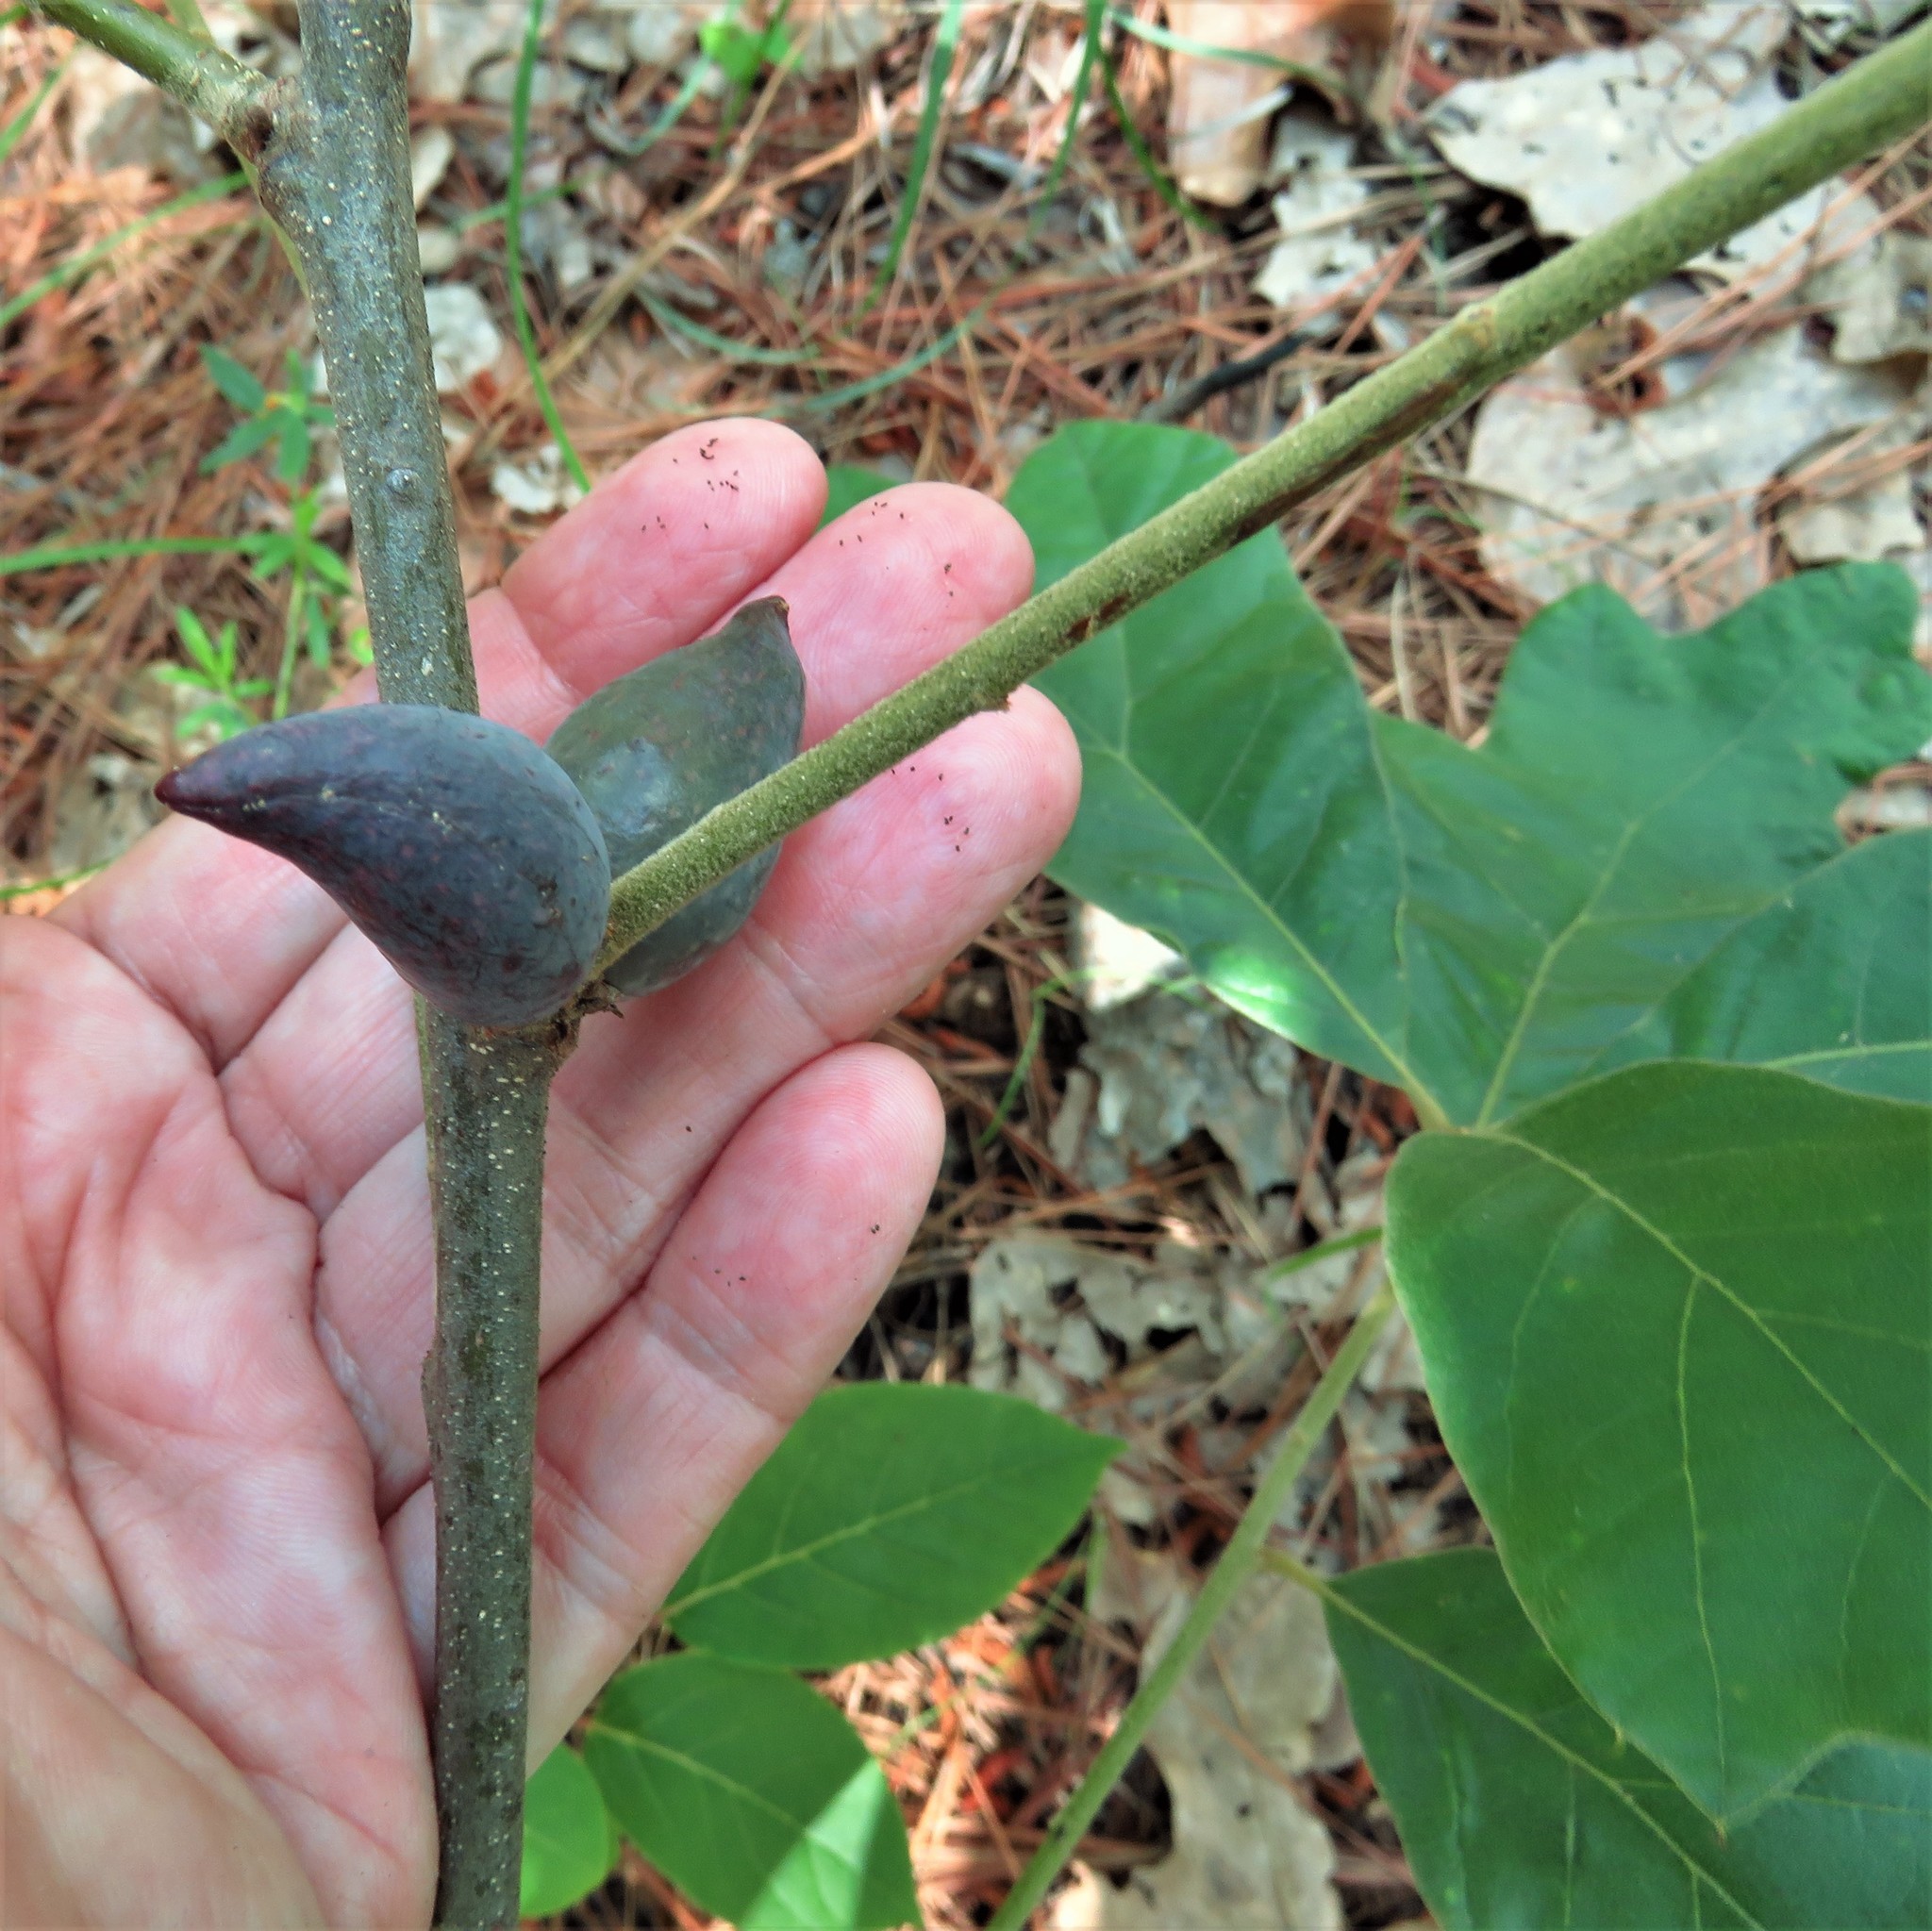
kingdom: Animalia
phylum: Arthropoda
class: Insecta
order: Hymenoptera
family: Cynipidae
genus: Amphibolips
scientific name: Amphibolips
